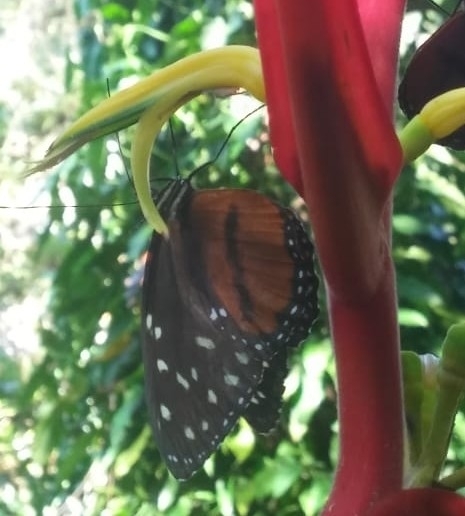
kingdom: Animalia
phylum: Arthropoda
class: Insecta
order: Lepidoptera
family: Nymphalidae
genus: Tithorea
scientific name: Tithorea tarricina
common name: Cream-spotted tigerwing
